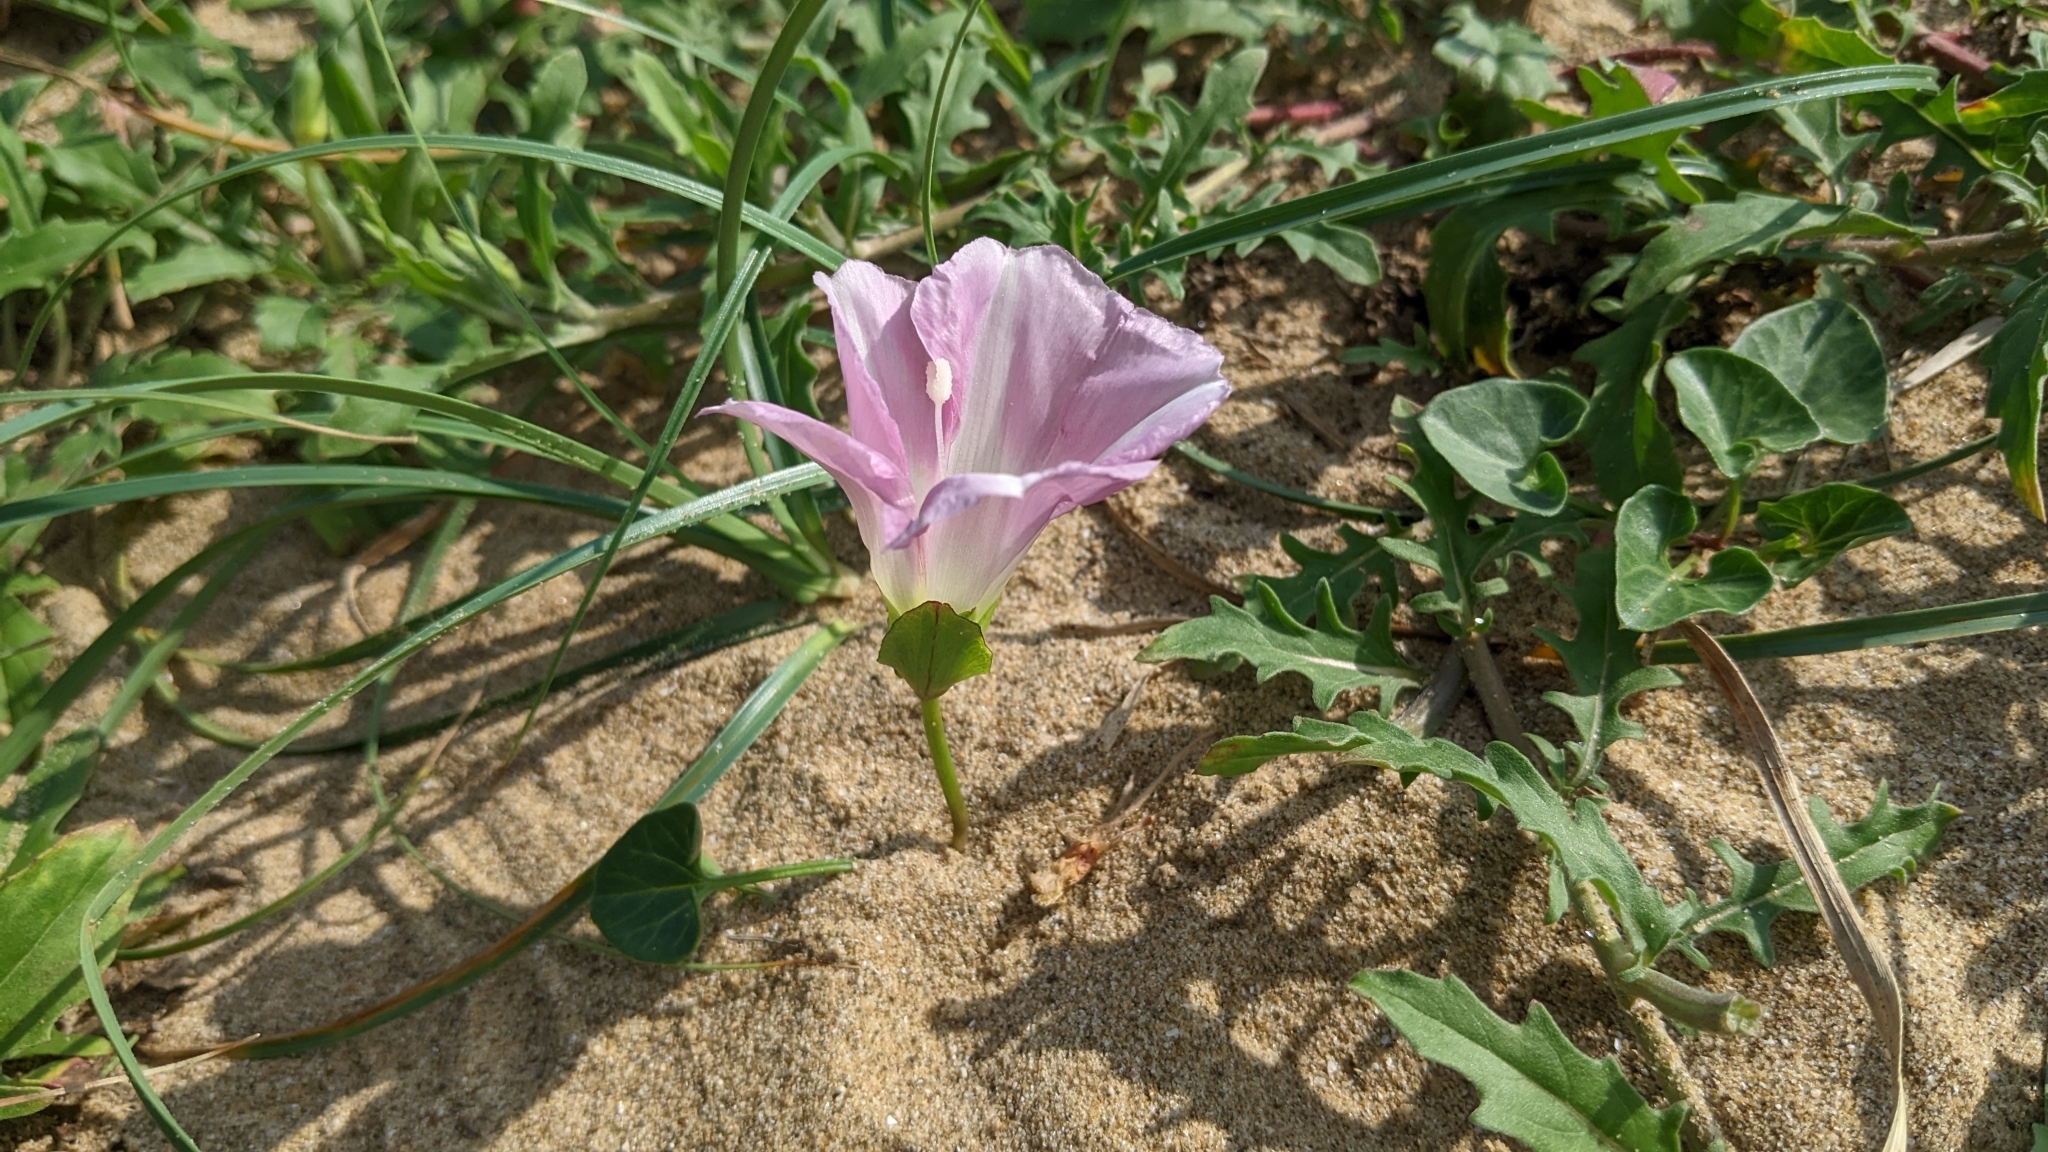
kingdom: Plantae
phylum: Tracheophyta
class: Magnoliopsida
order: Solanales
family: Convolvulaceae
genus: Calystegia
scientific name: Calystegia soldanella
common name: Sea bindweed
